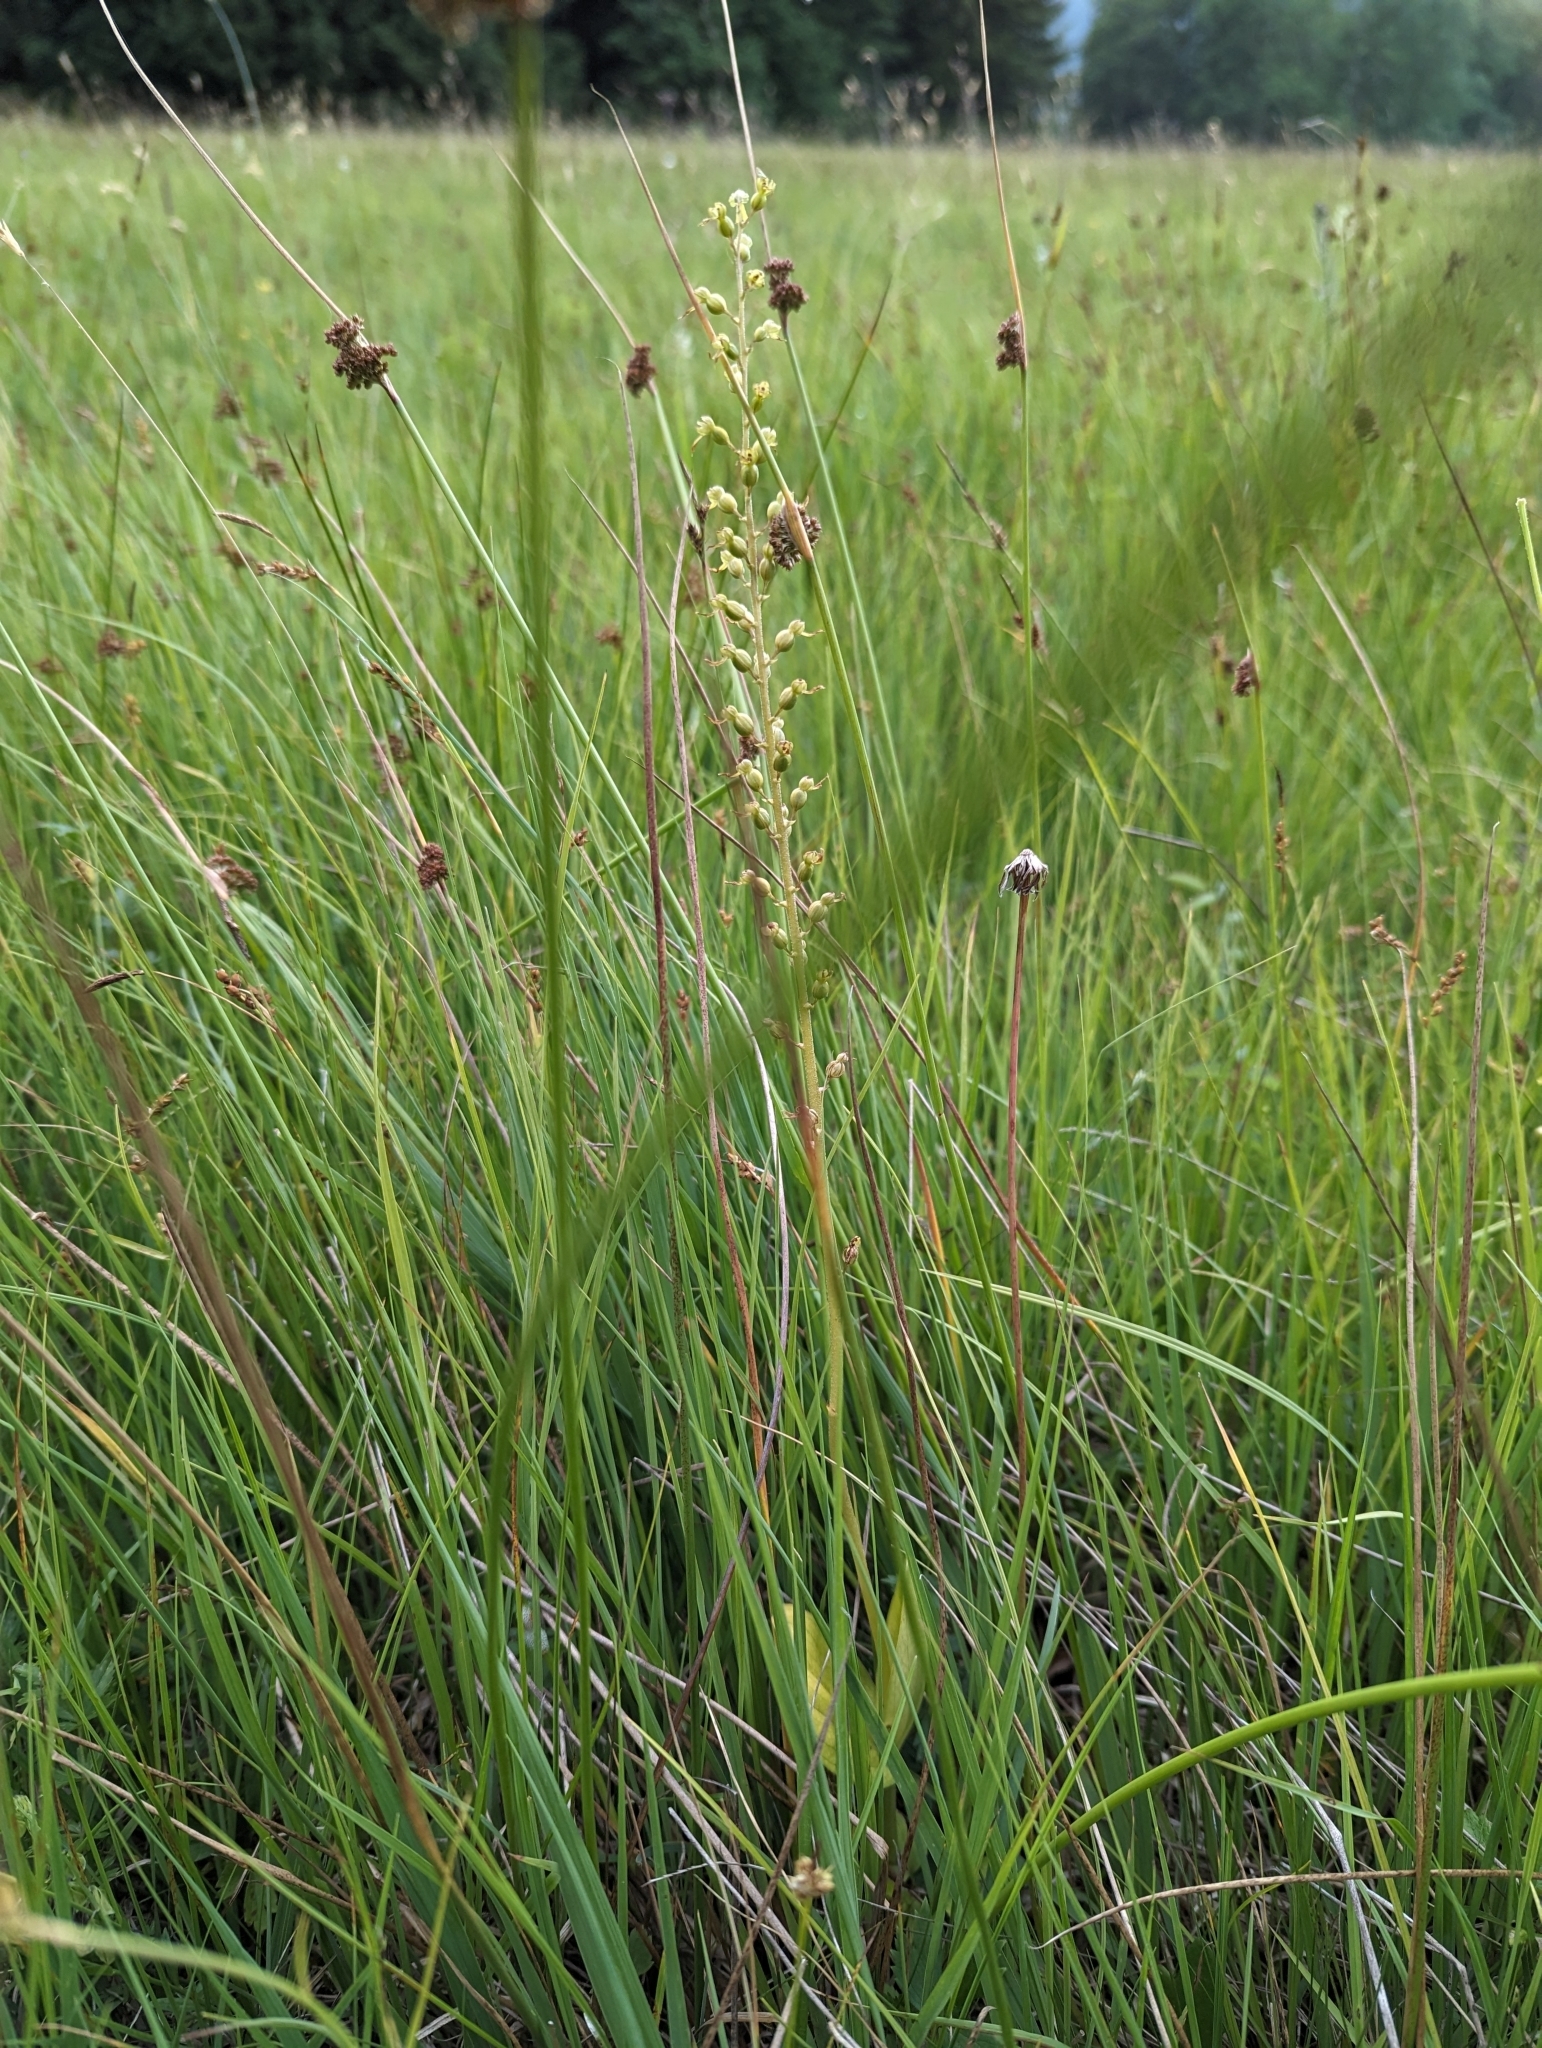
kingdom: Plantae
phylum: Tracheophyta
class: Liliopsida
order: Asparagales
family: Orchidaceae
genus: Neottia
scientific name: Neottia ovata
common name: Common twayblade
